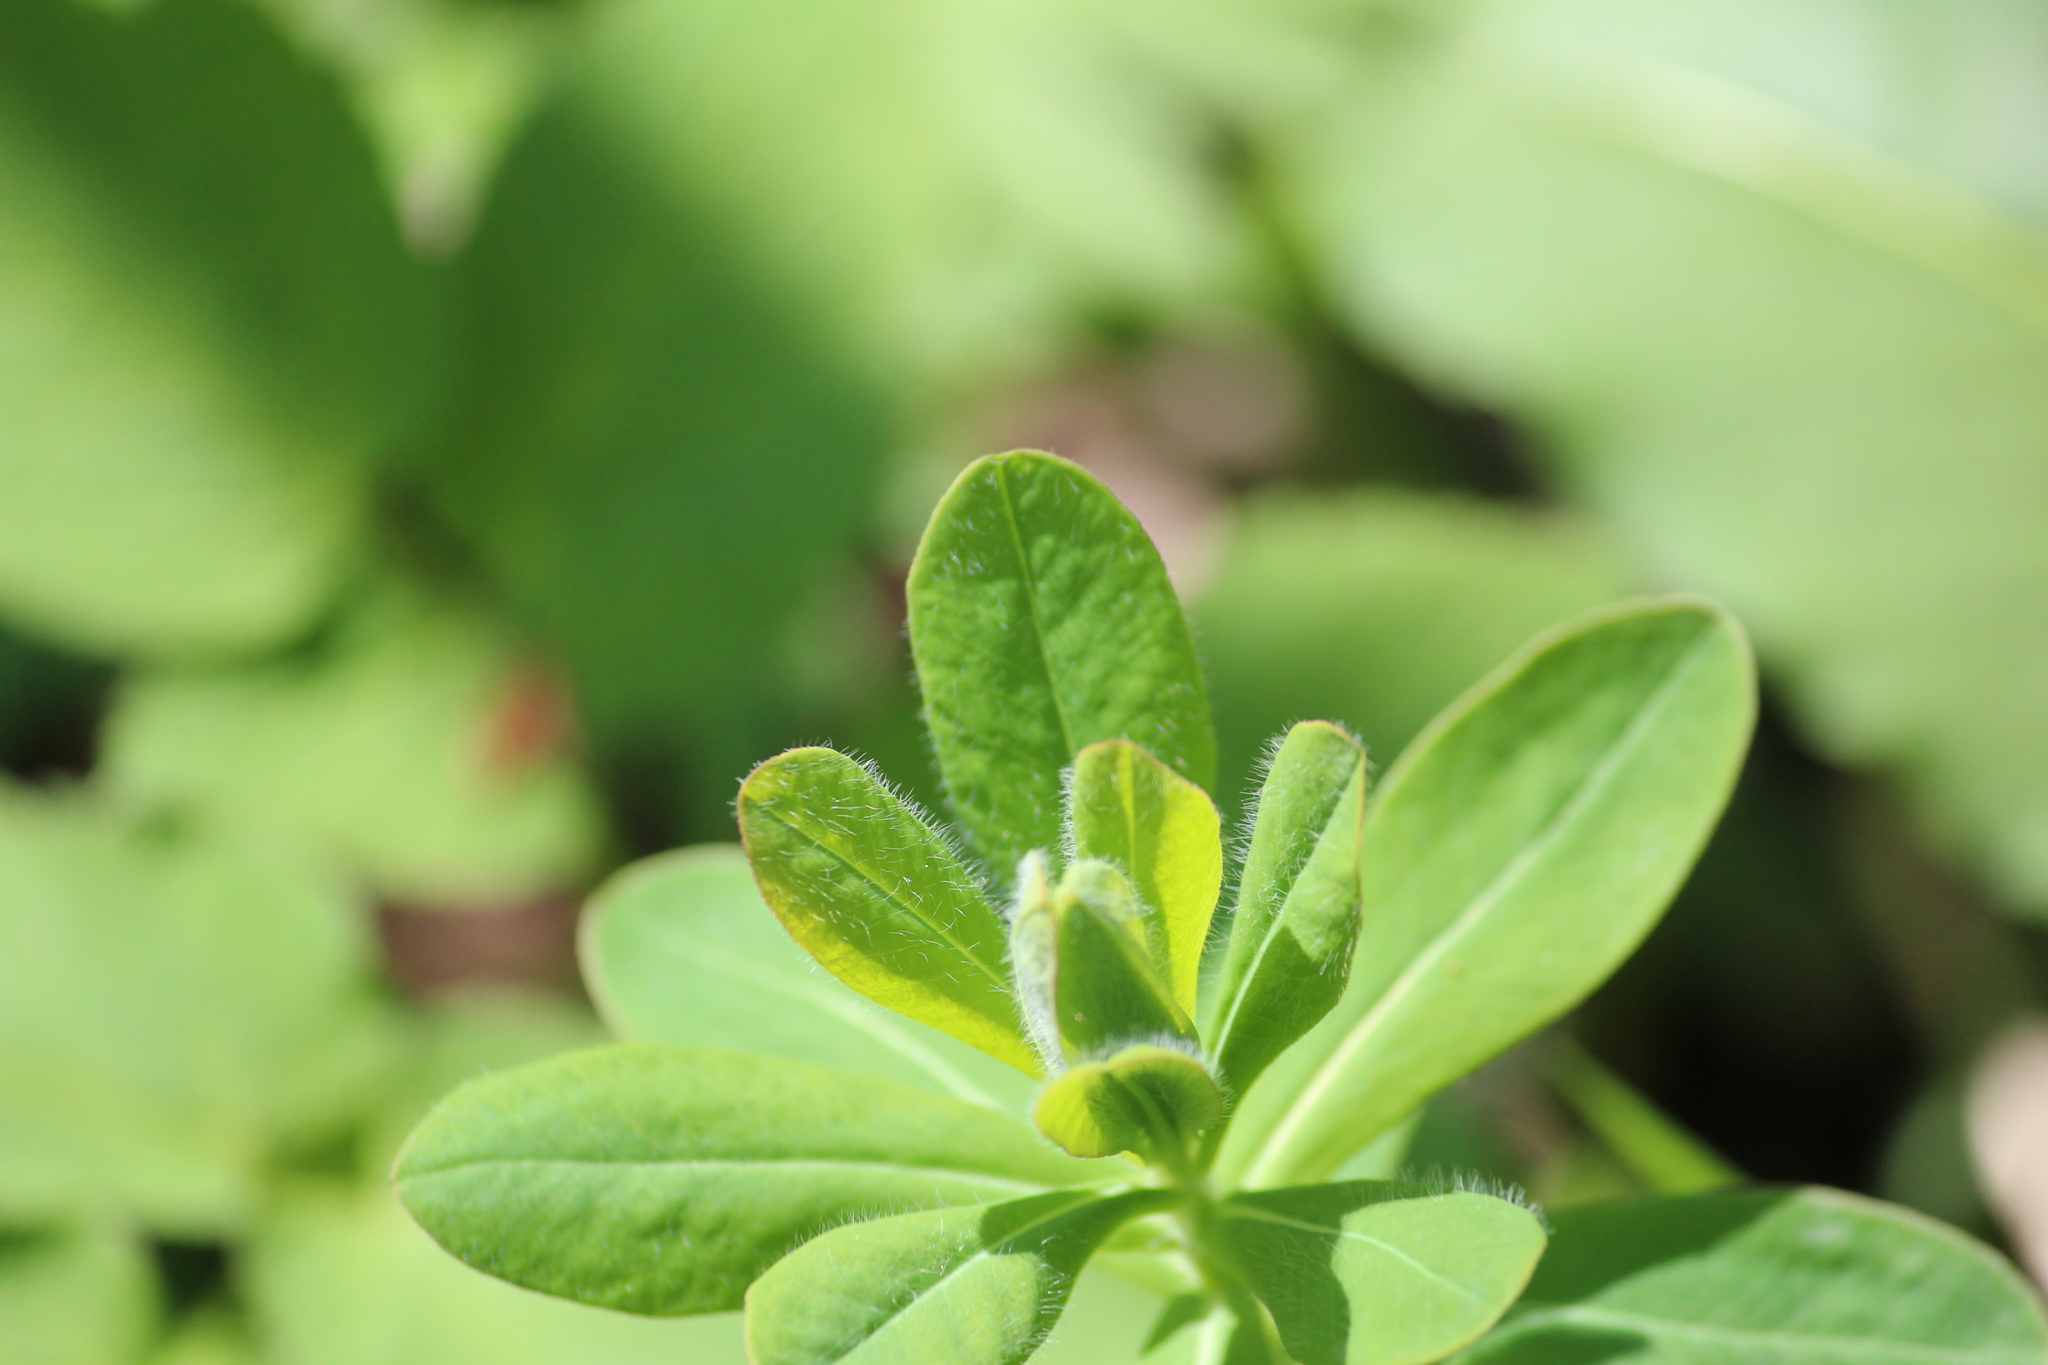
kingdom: Plantae
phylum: Tracheophyta
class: Magnoliopsida
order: Malpighiales
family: Euphorbiaceae
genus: Euphorbia
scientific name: Euphorbia pilosa
